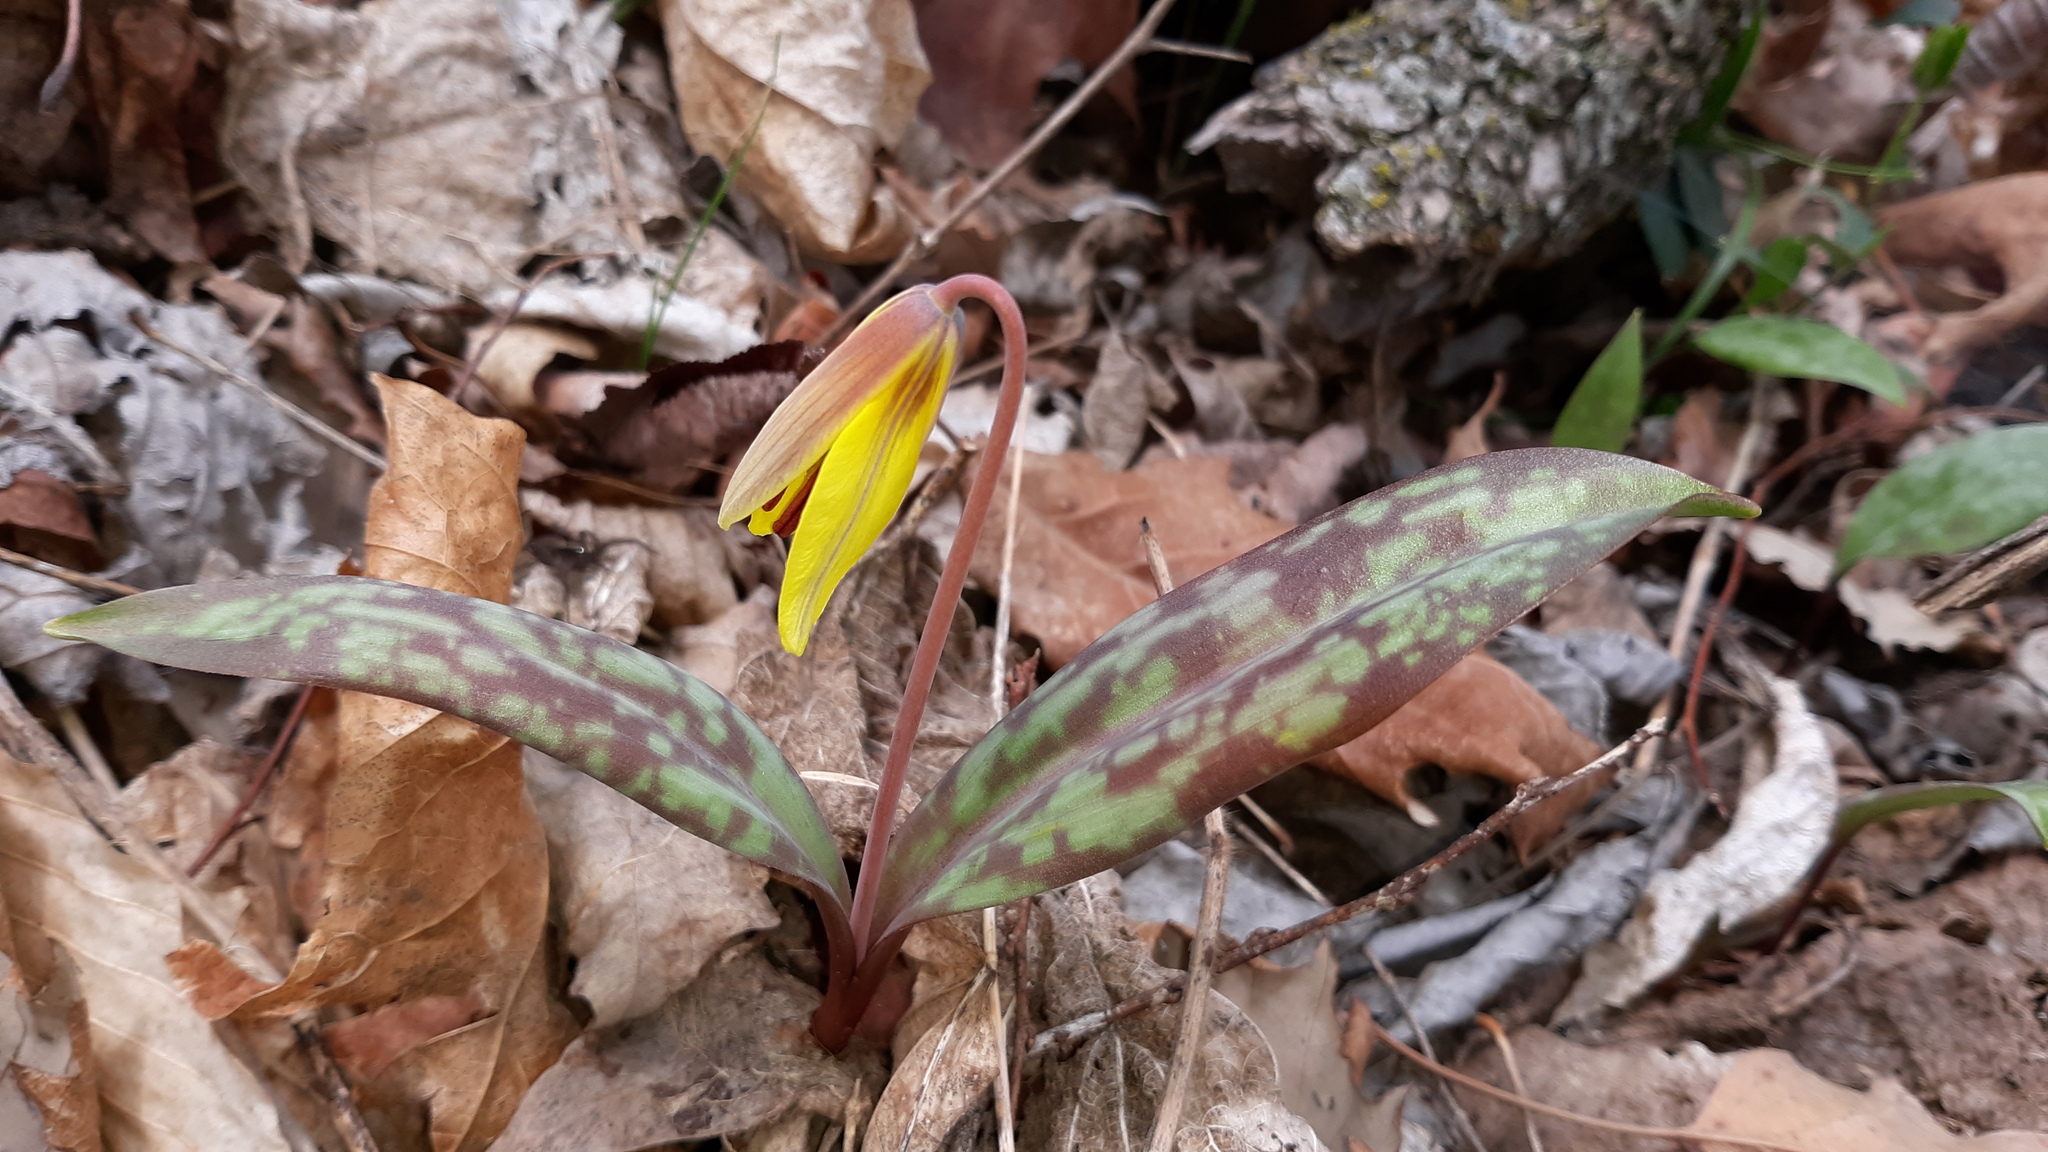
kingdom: Plantae
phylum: Tracheophyta
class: Liliopsida
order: Liliales
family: Liliaceae
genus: Erythronium
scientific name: Erythronium americanum
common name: Yellow adder's-tongue
